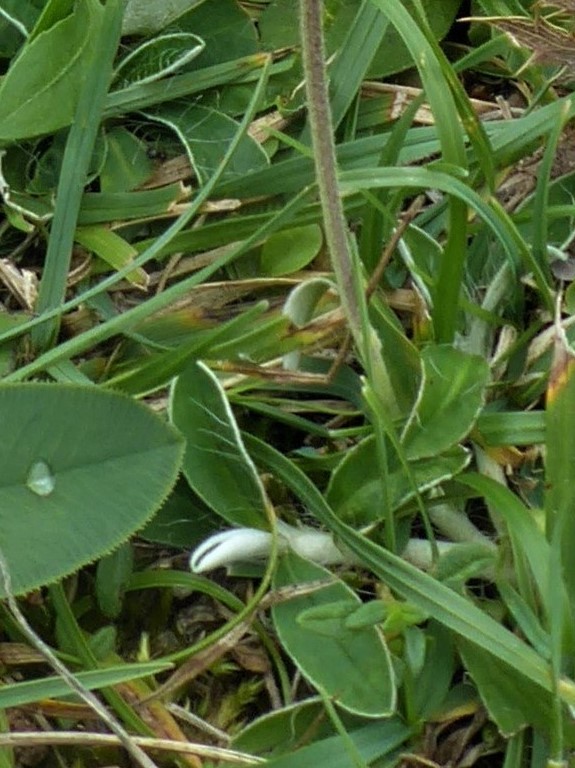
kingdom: Plantae
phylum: Tracheophyta
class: Magnoliopsida
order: Asterales
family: Asteraceae
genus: Pilosella
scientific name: Pilosella officinarum
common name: Mouse-ear hawkweed
